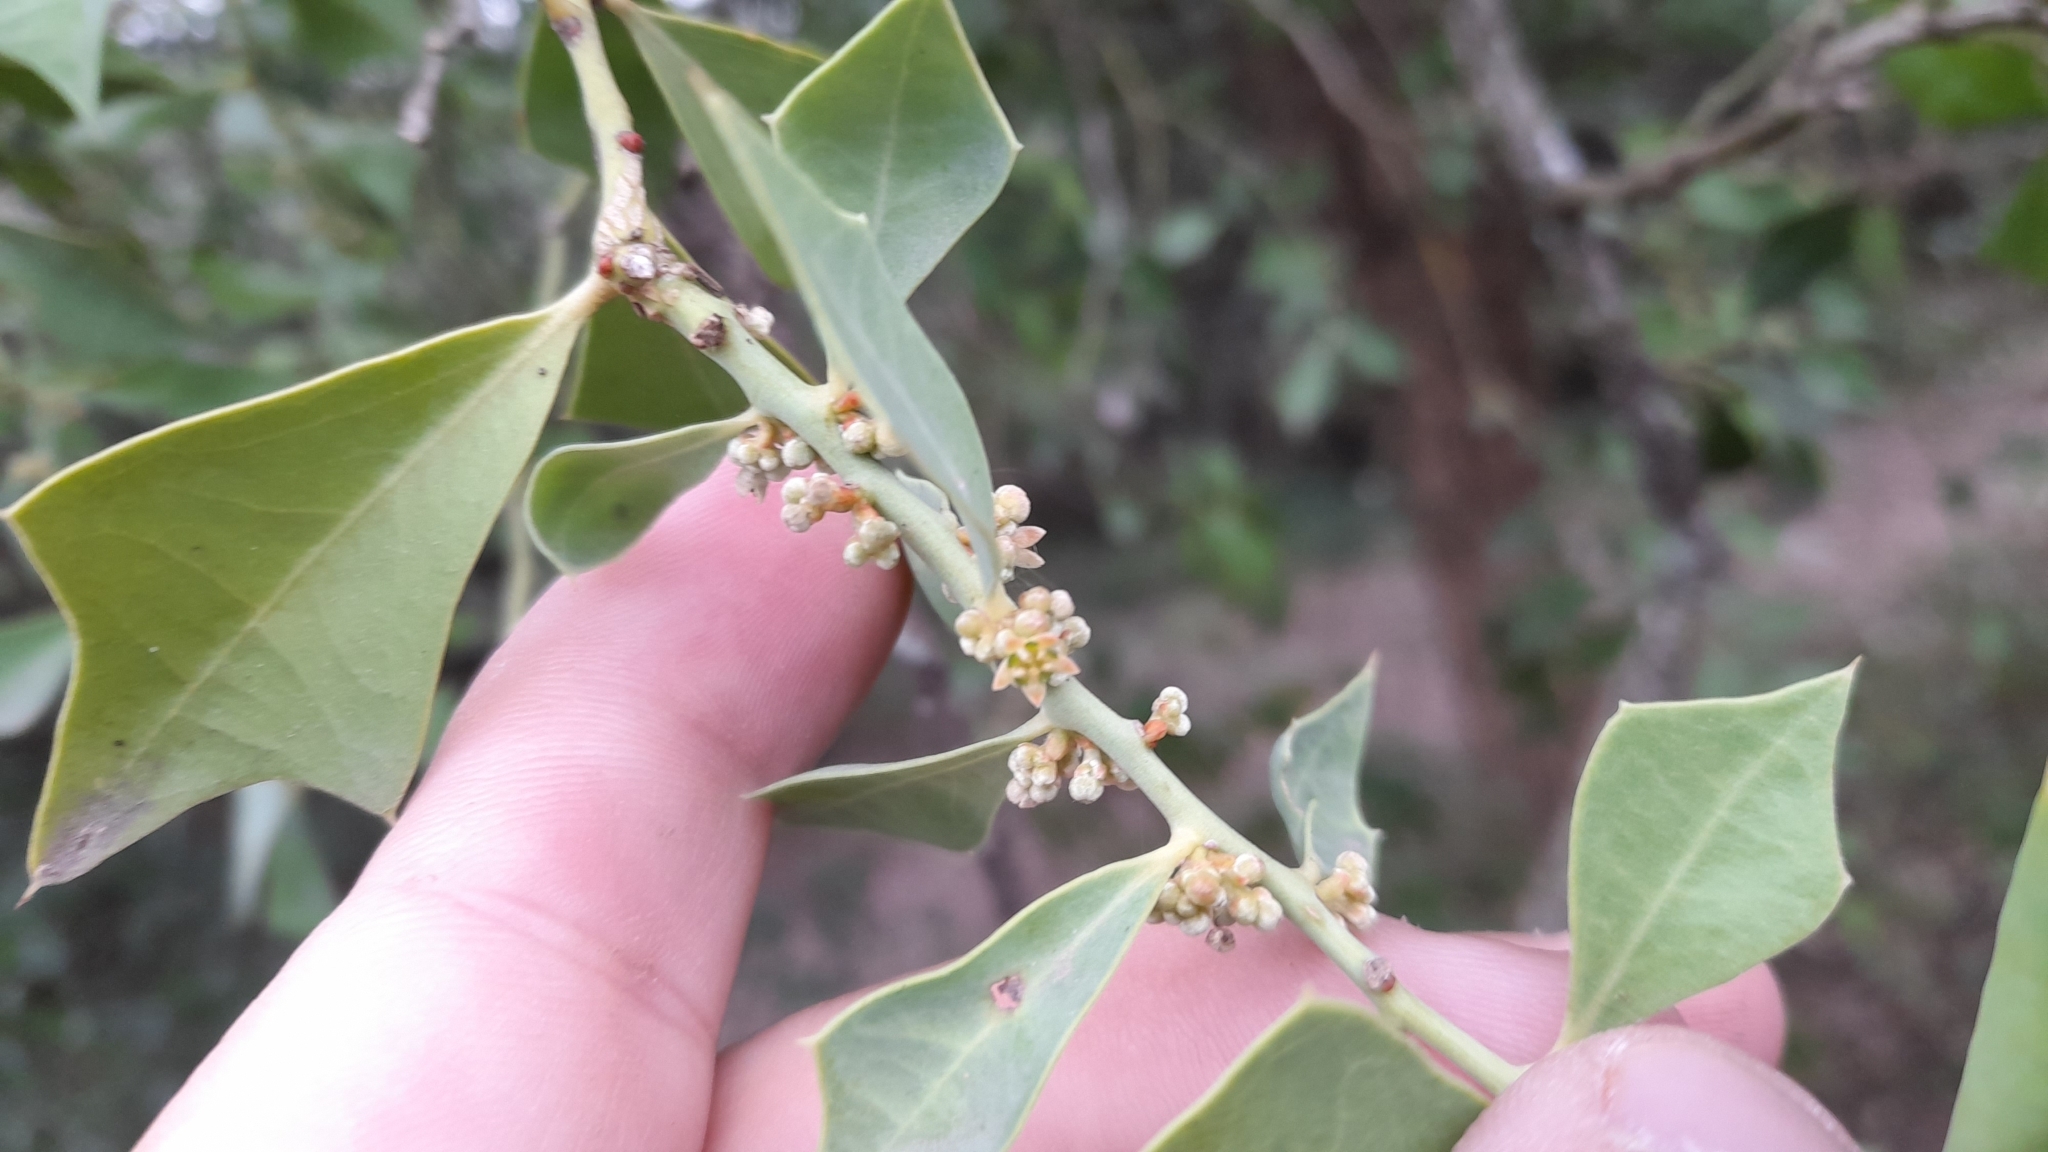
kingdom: Plantae
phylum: Tracheophyta
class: Magnoliopsida
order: Santalales
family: Cervantesiaceae
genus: Jodina
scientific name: Jodina rhombifolia
